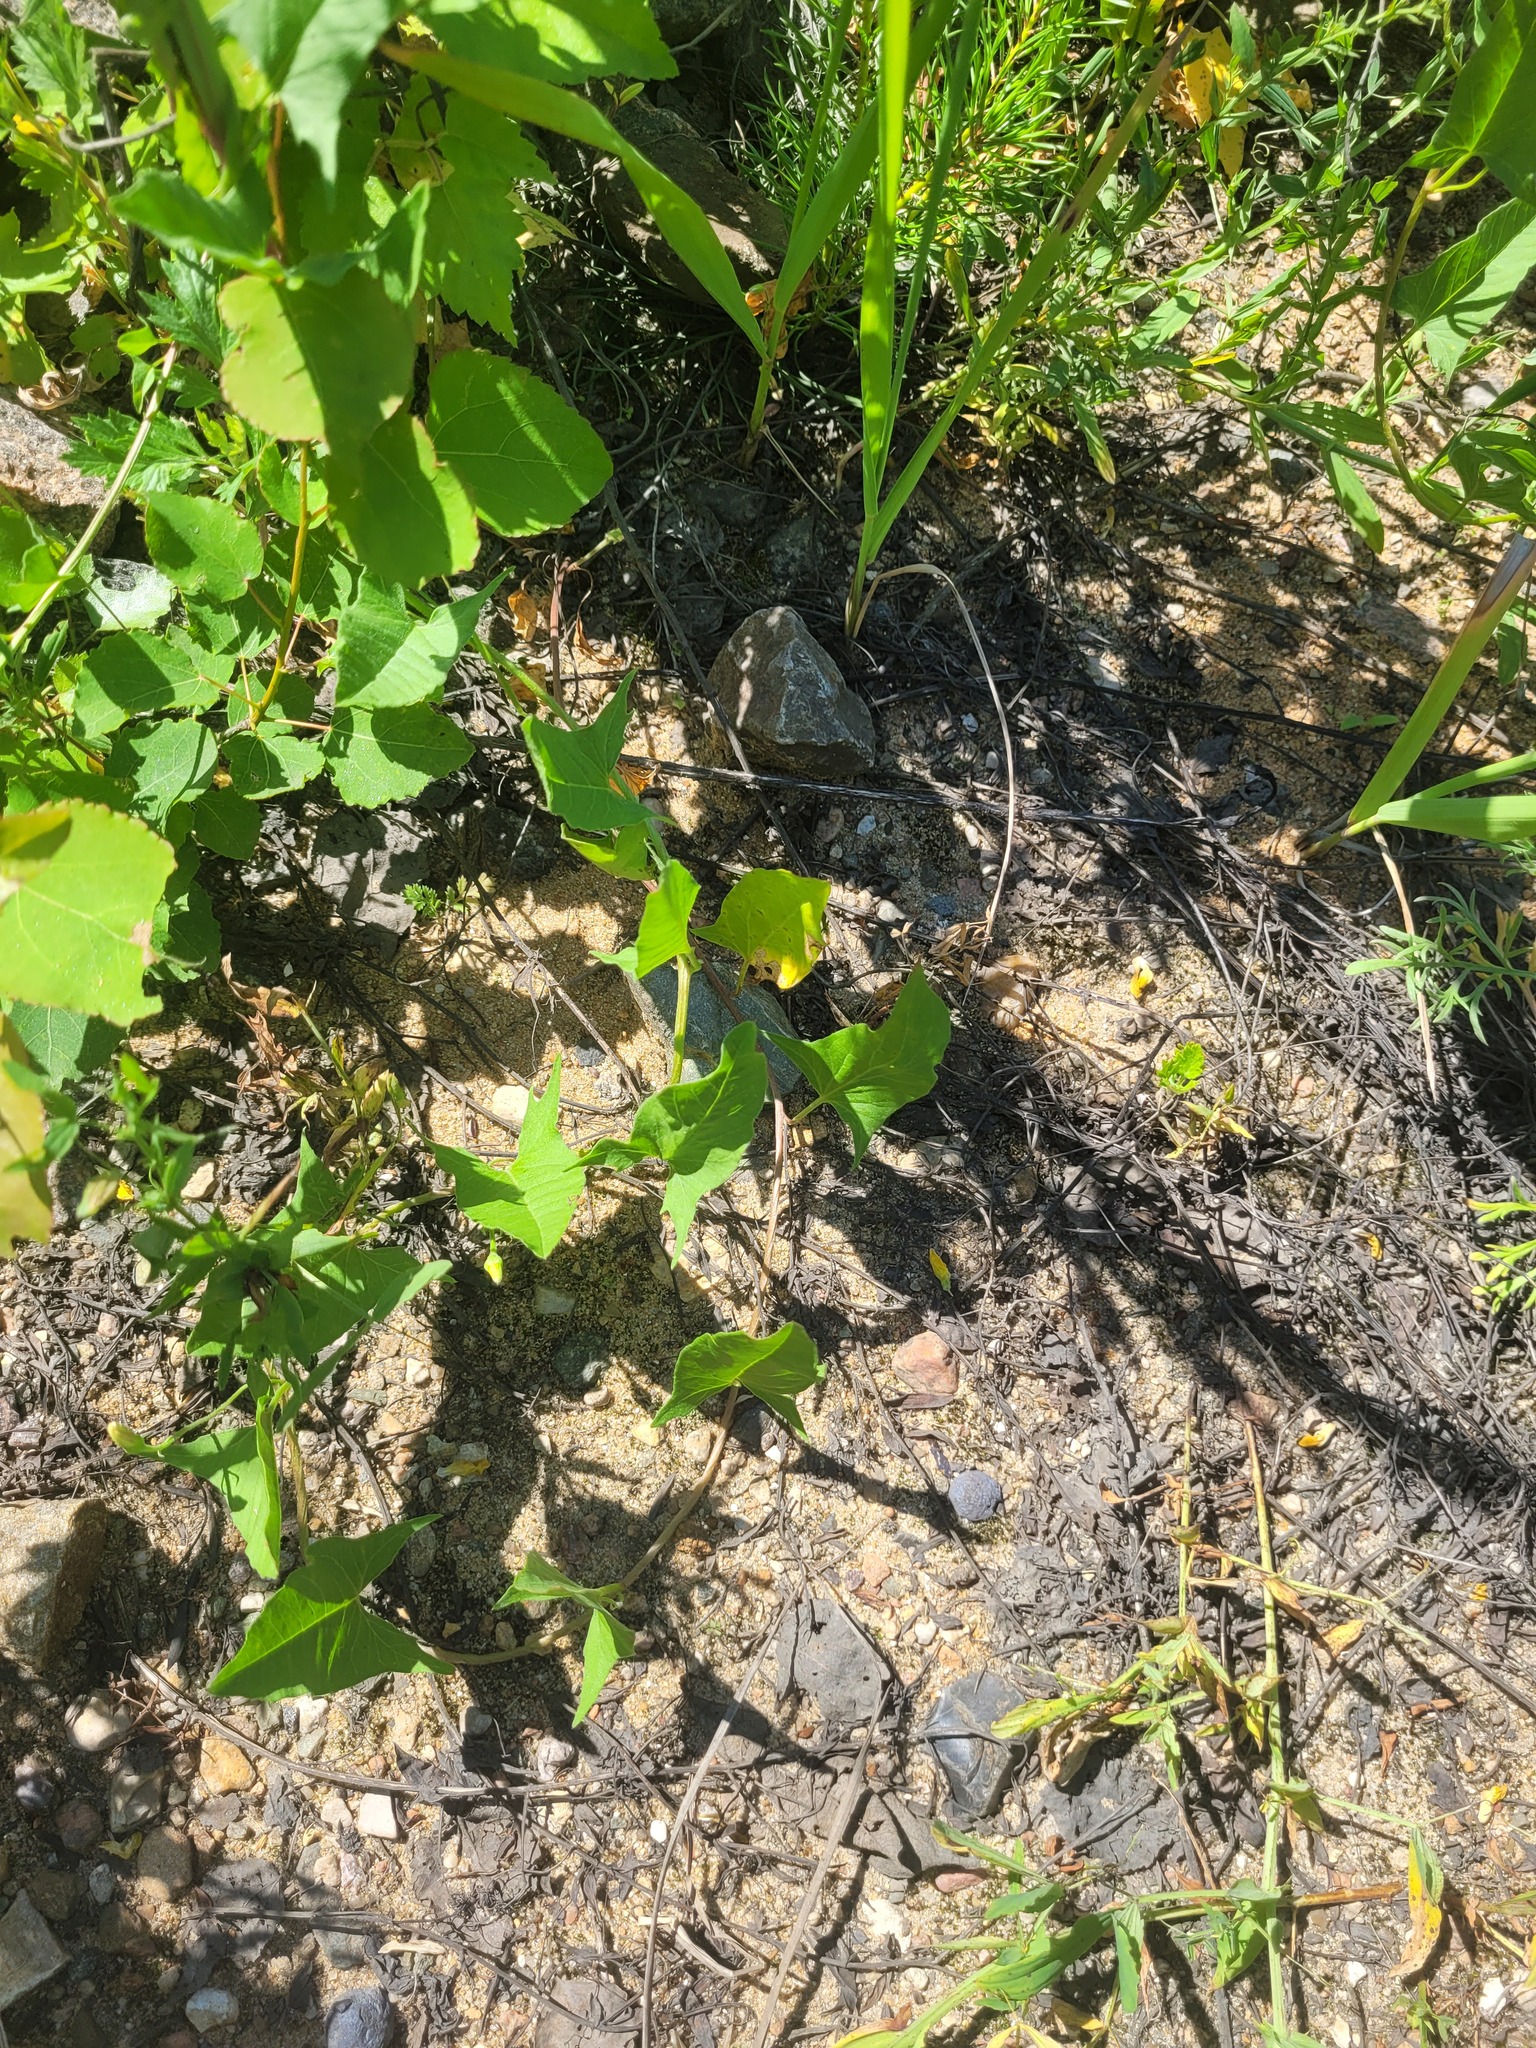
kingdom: Plantae
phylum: Tracheophyta
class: Magnoliopsida
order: Solanales
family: Convolvulaceae
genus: Convolvulus
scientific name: Convolvulus arvensis
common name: Field bindweed
